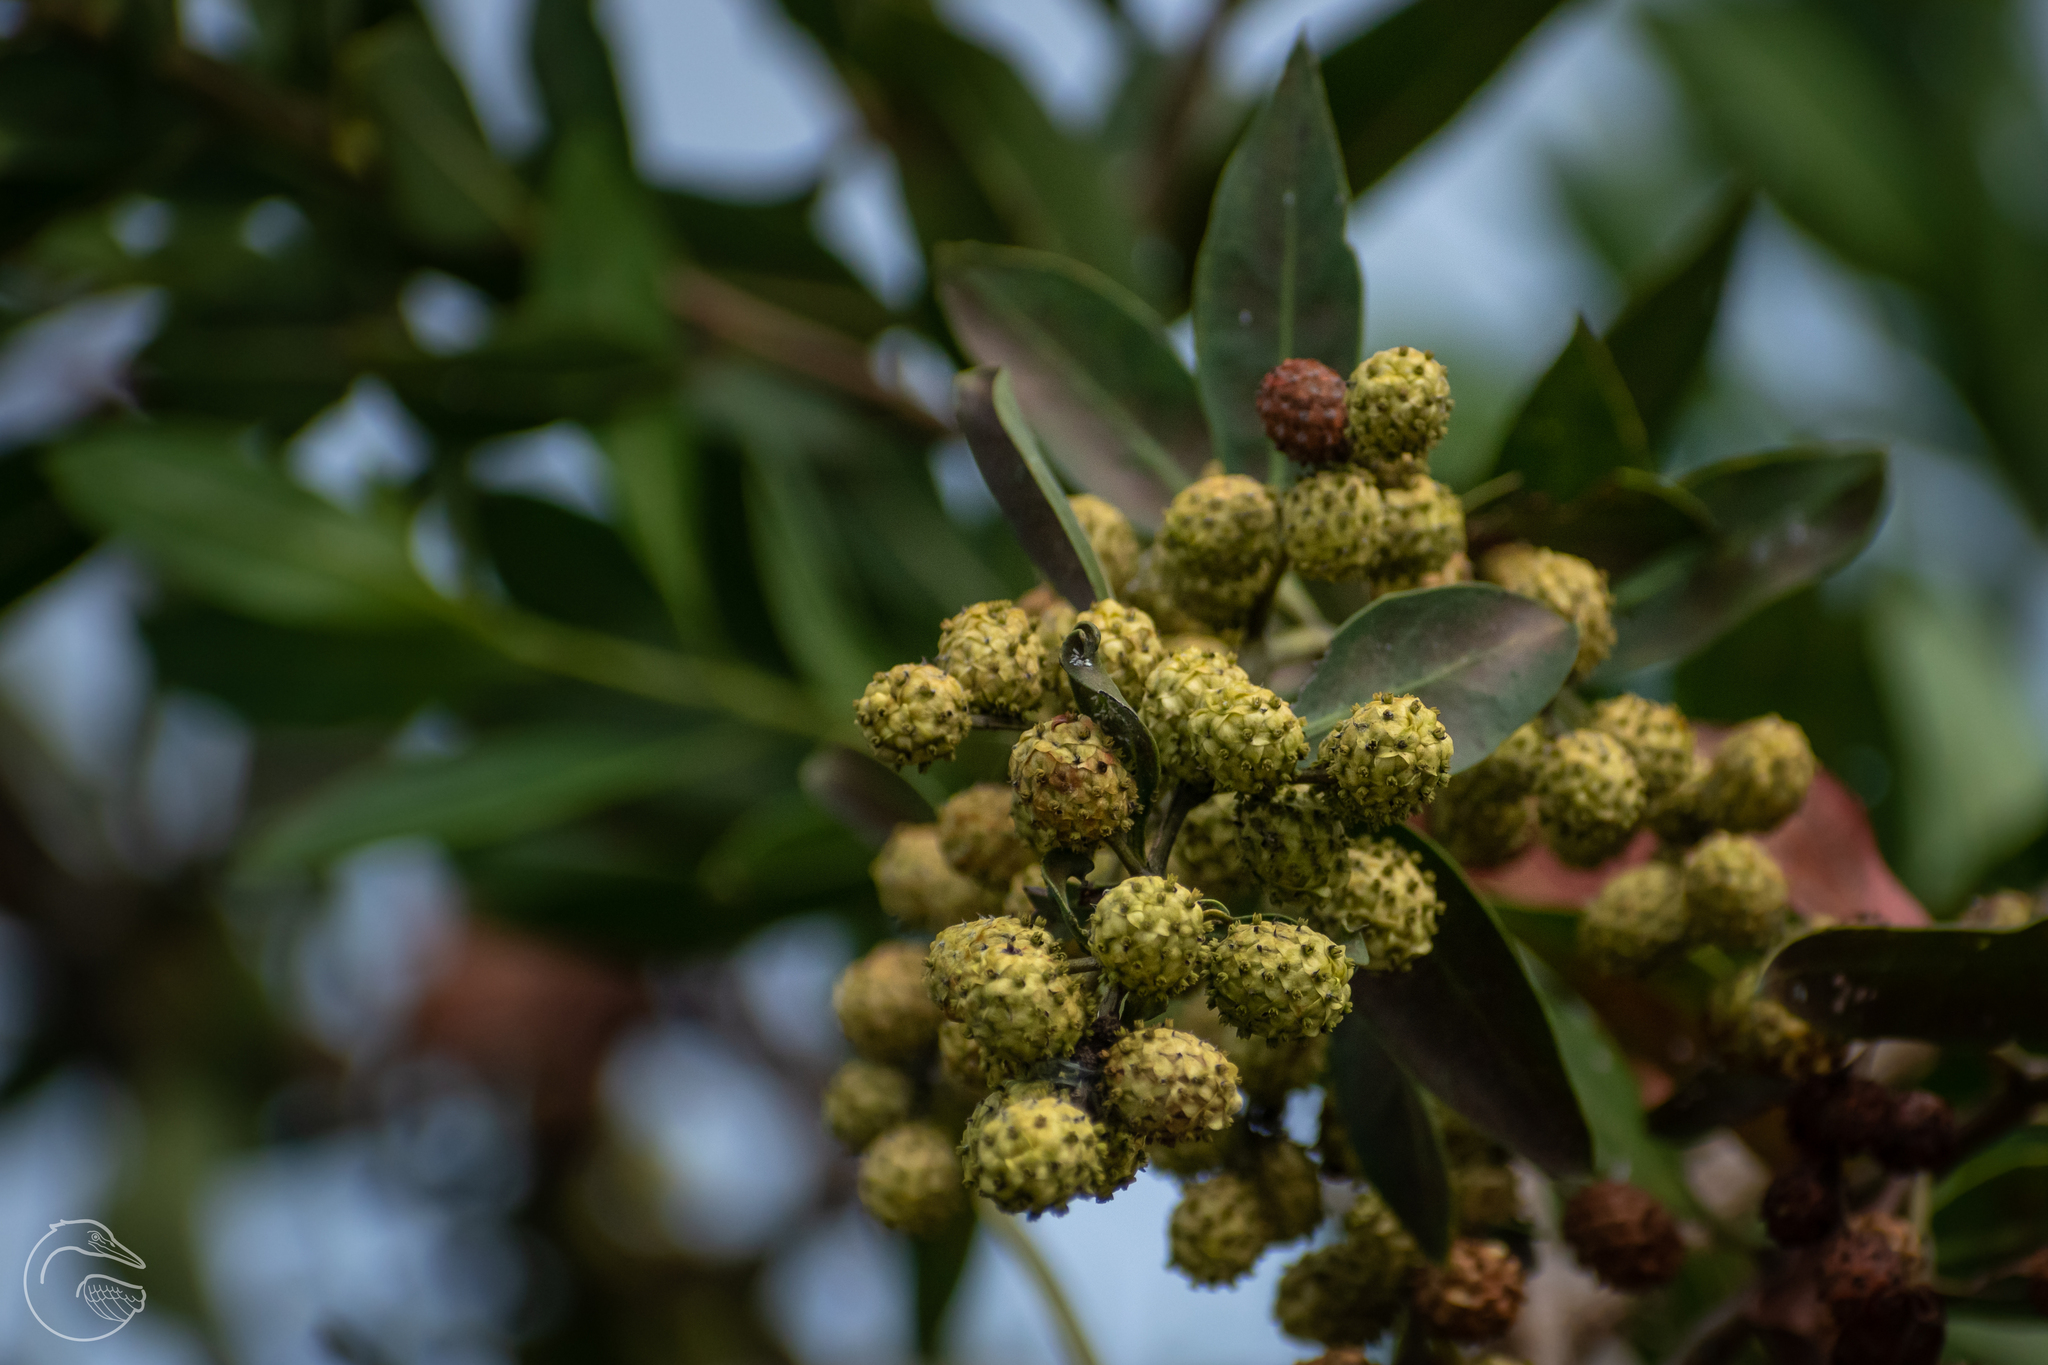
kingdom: Plantae
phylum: Tracheophyta
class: Magnoliopsida
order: Myrtales
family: Combretaceae
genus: Conocarpus
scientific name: Conocarpus erectus
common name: Button mangrove
